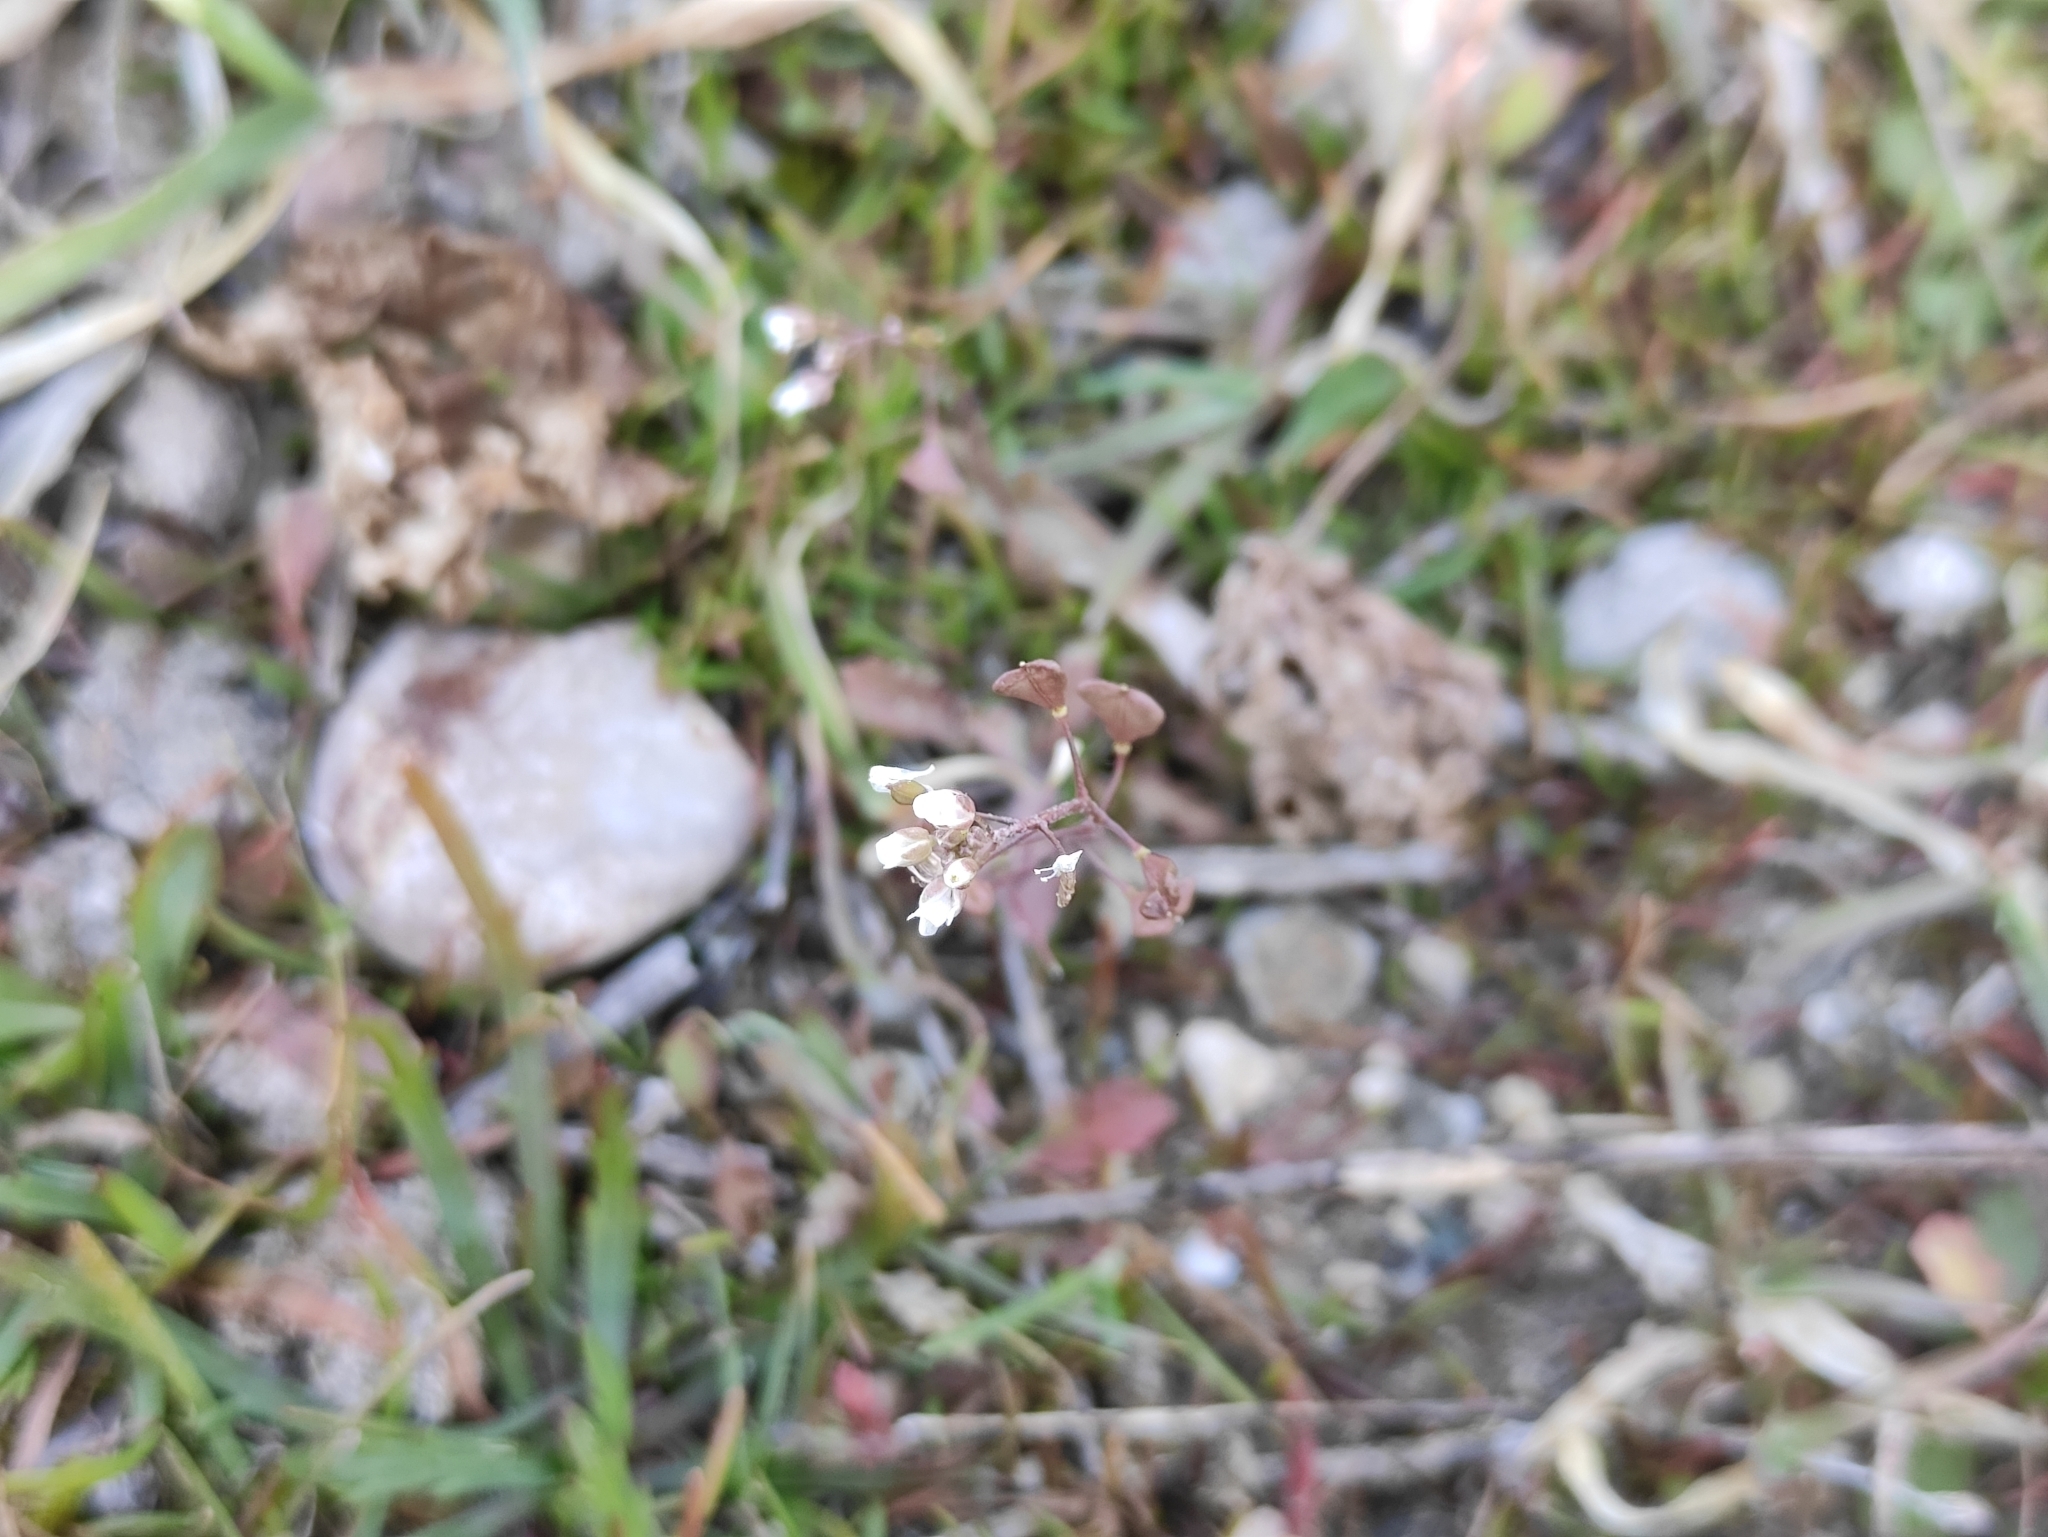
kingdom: Plantae
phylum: Tracheophyta
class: Magnoliopsida
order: Brassicales
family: Brassicaceae
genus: Capsella
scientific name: Capsella bursa-pastoris
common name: Shepherd's purse
